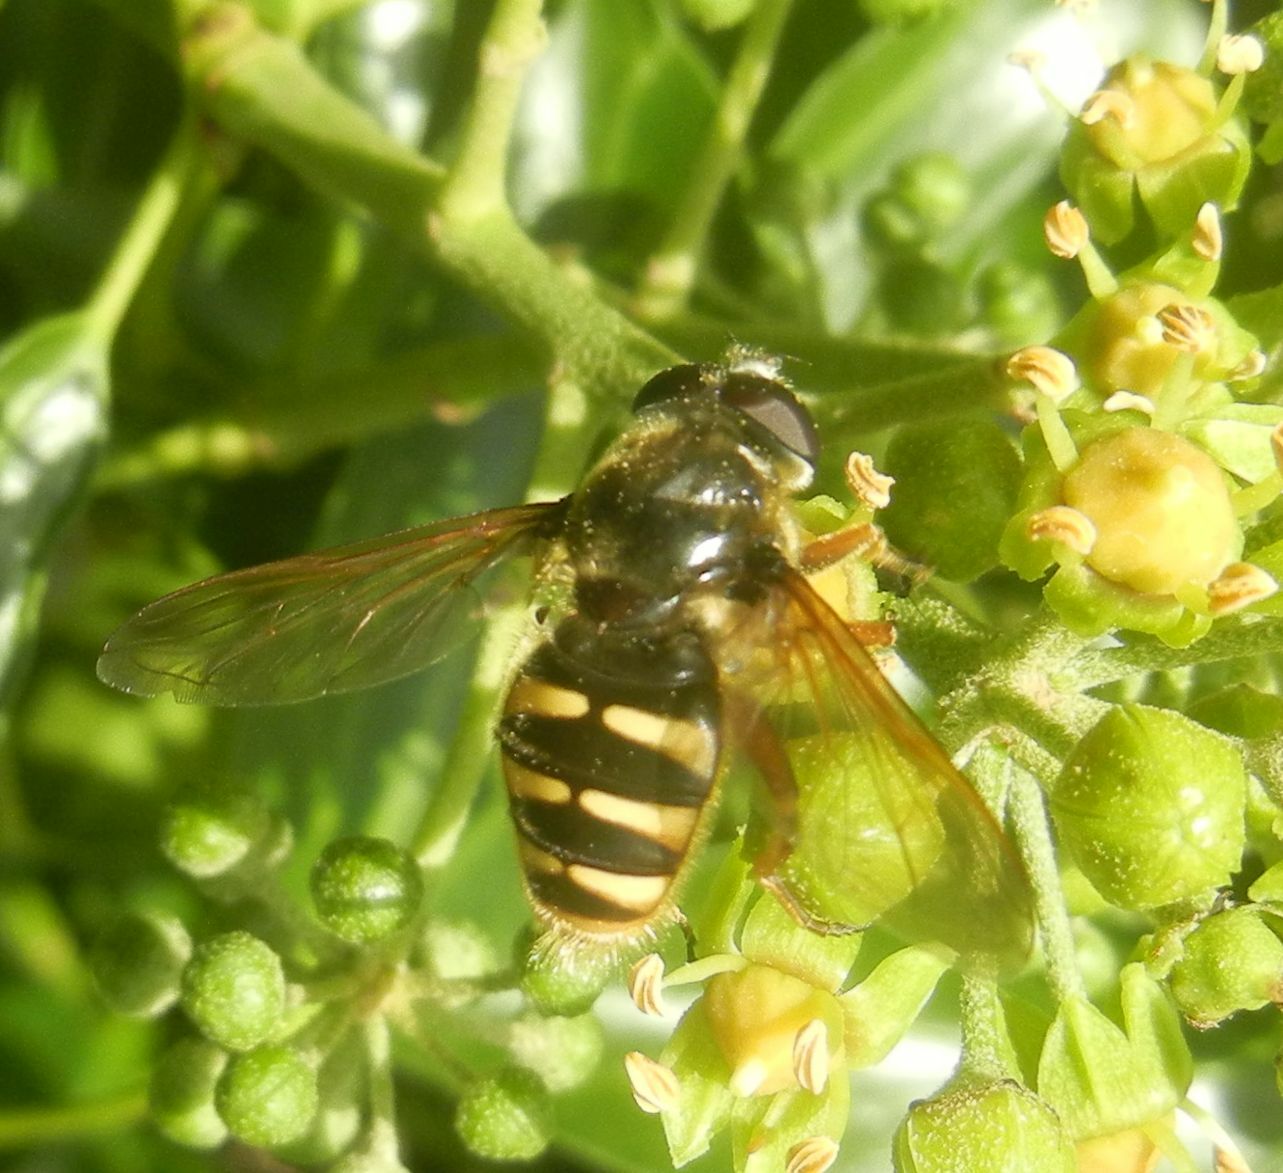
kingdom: Animalia
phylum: Arthropoda
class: Insecta
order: Diptera
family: Syrphidae
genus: Sericomyia
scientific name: Sericomyia silentis
